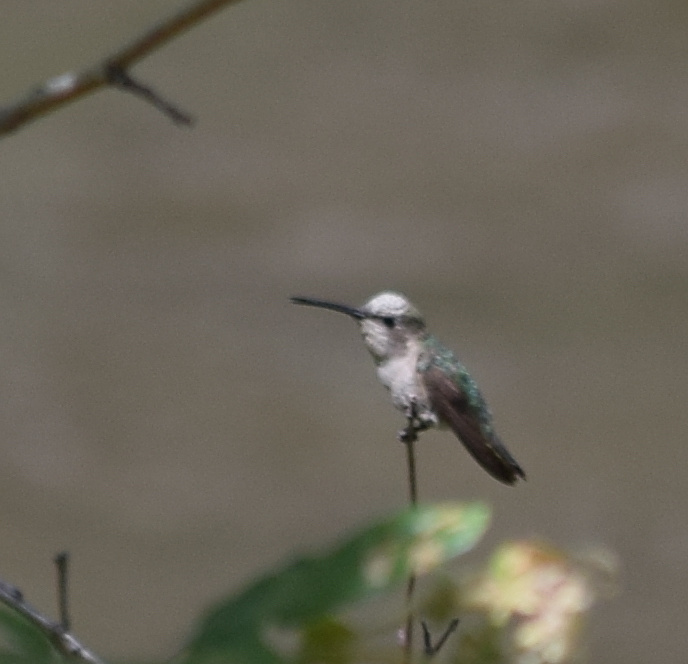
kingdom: Animalia
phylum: Chordata
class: Aves
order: Apodiformes
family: Trochilidae
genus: Calypte
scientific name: Calypte anna
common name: Anna's hummingbird
